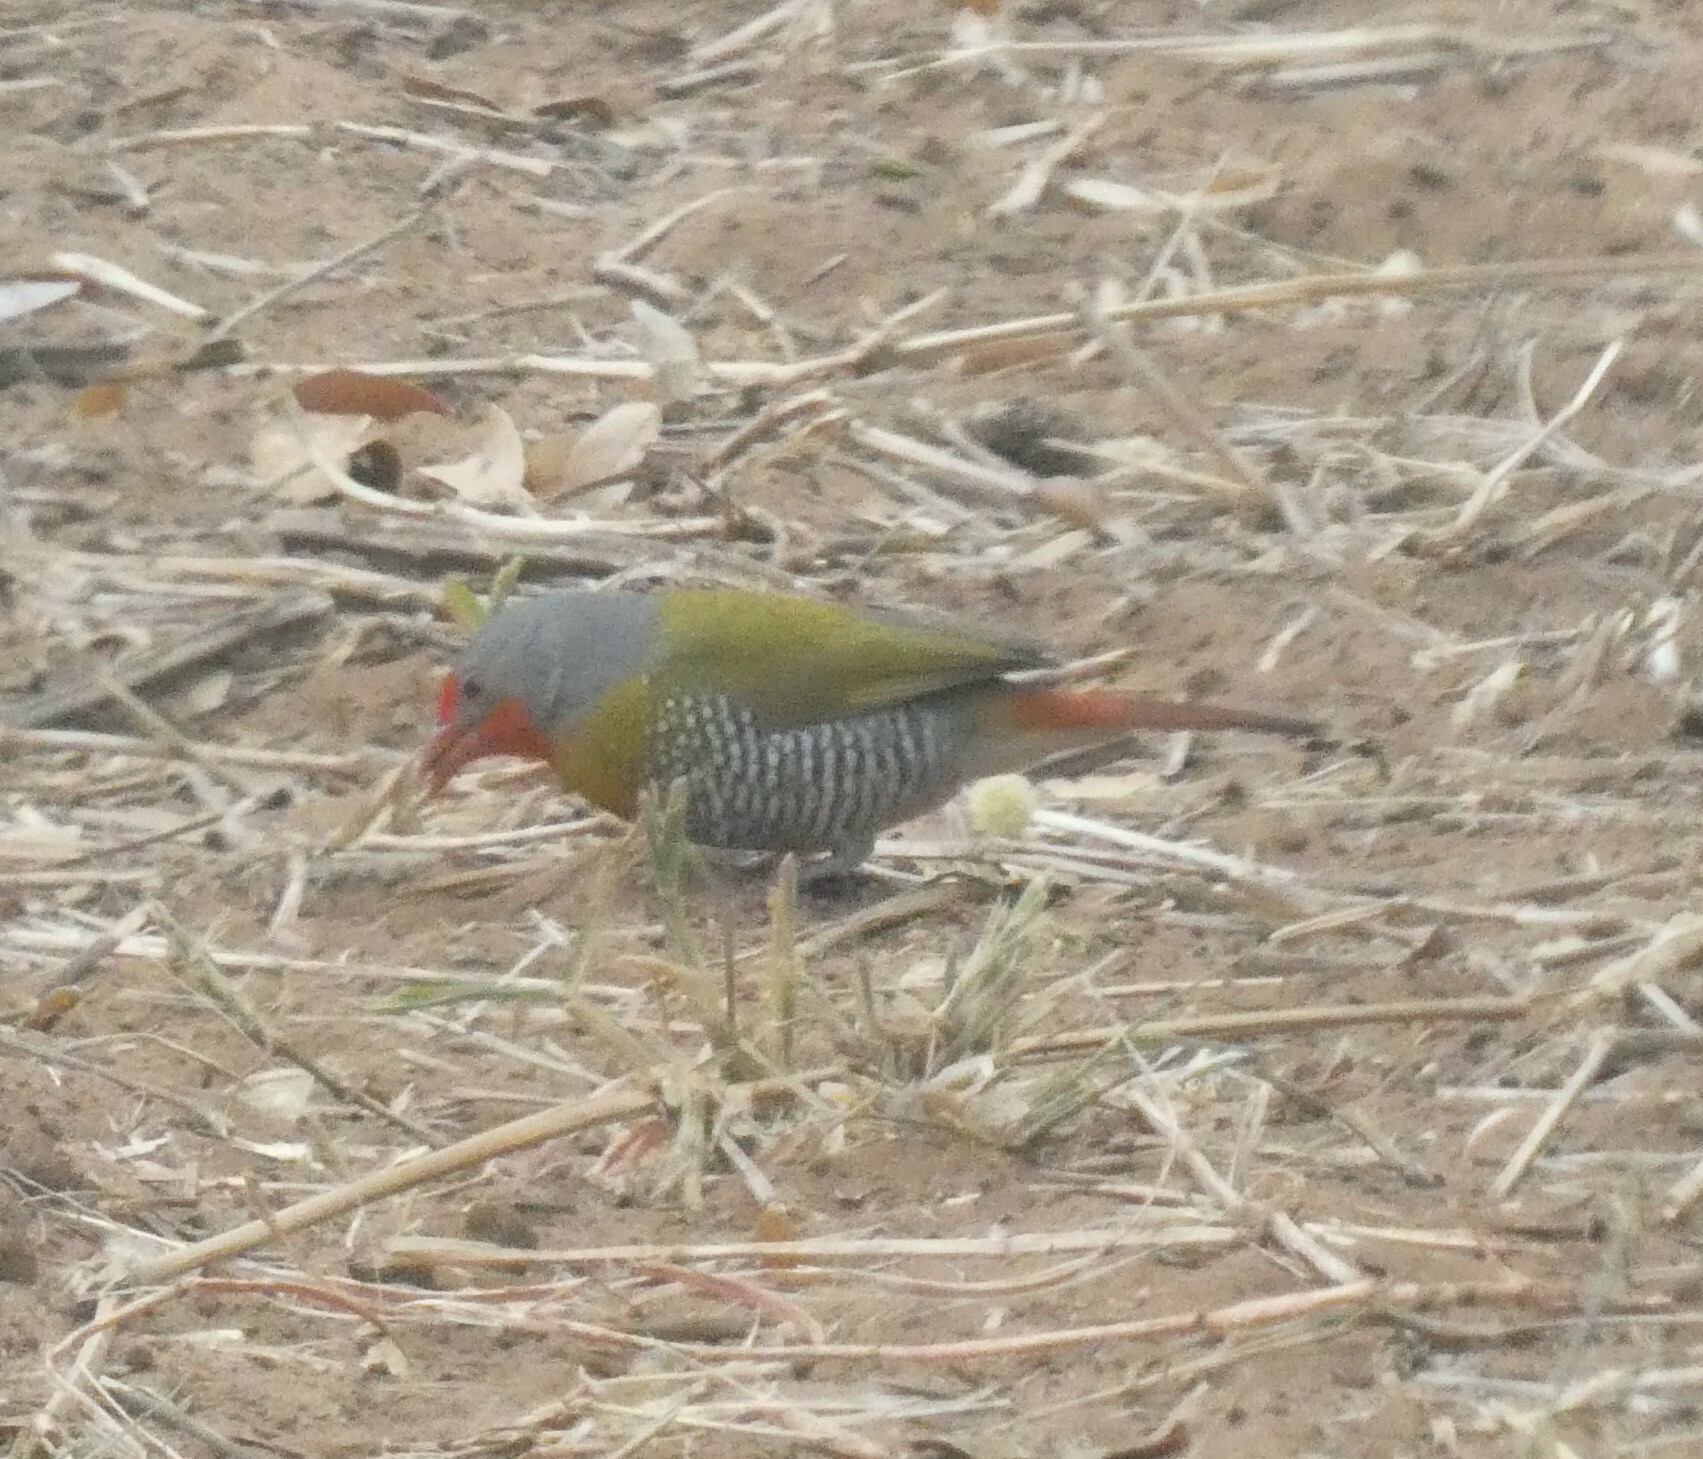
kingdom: Animalia
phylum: Chordata
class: Aves
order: Passeriformes
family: Estrildidae
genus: Pytilia
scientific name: Pytilia melba
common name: Green-winged pytilia
